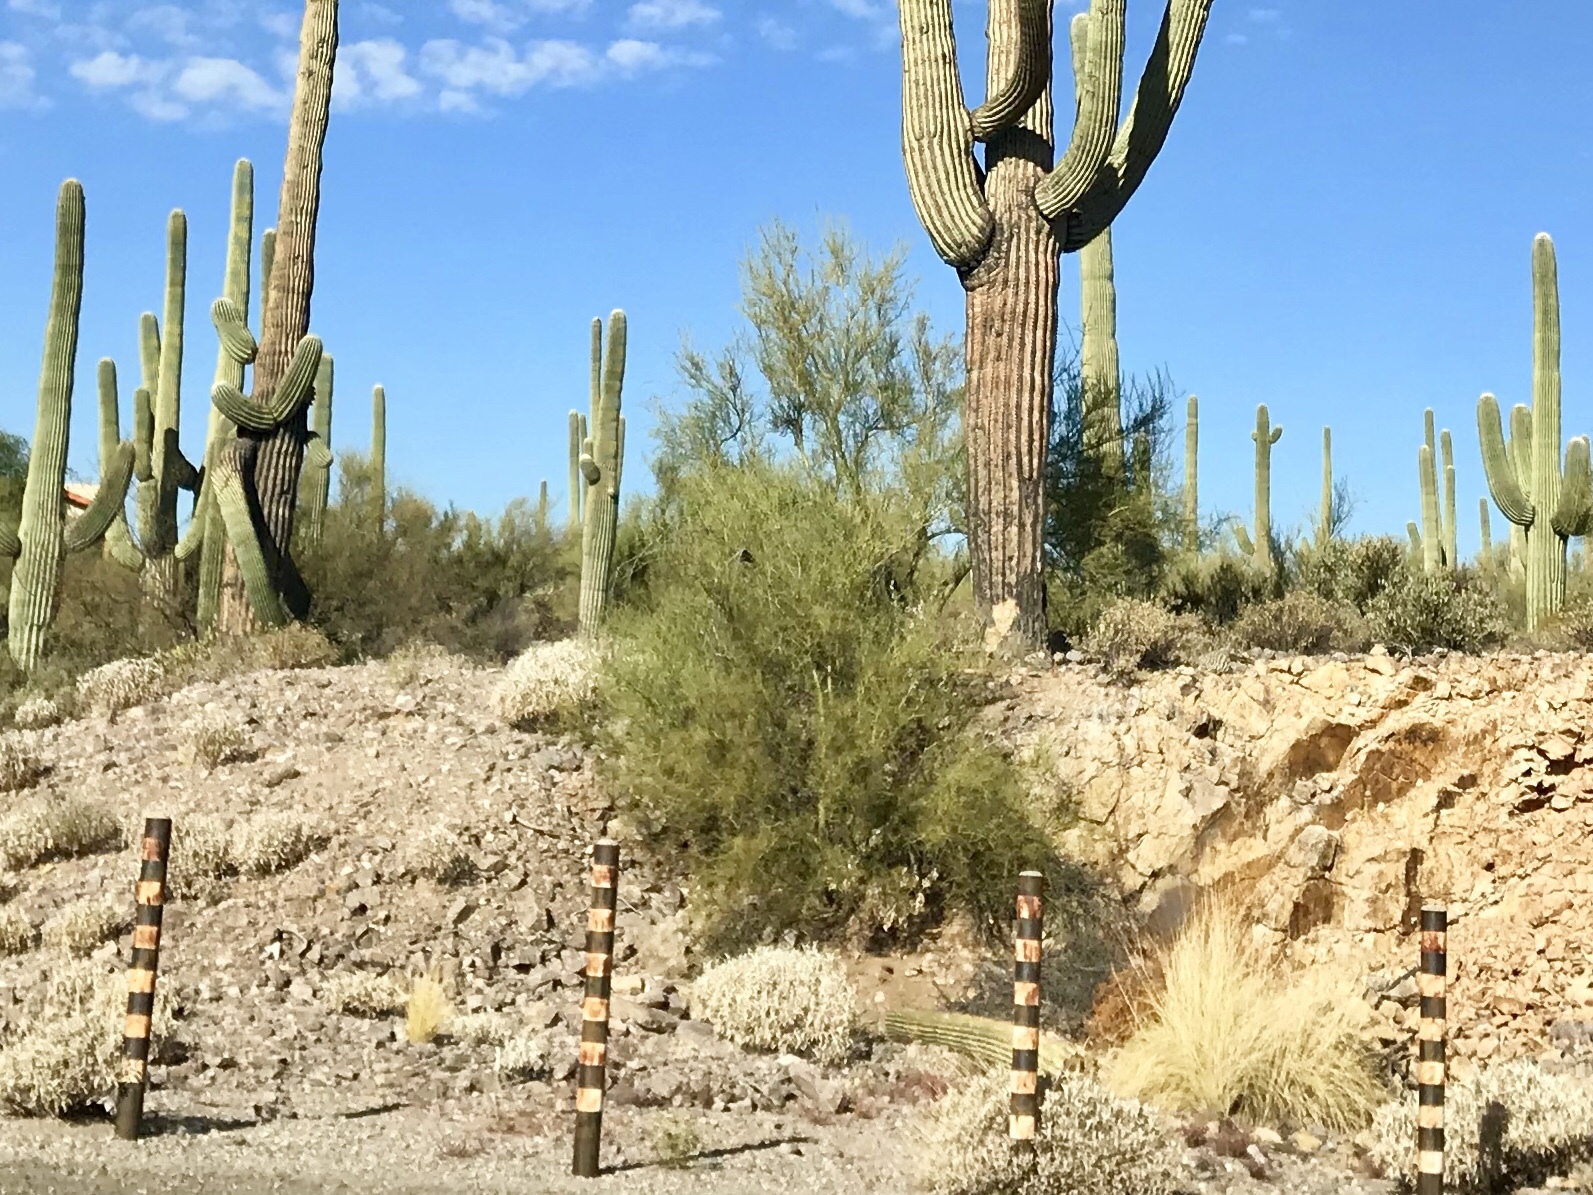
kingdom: Plantae
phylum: Tracheophyta
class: Magnoliopsida
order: Fabales
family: Fabaceae
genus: Parkinsonia
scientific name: Parkinsonia microphylla
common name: Yellow paloverde
